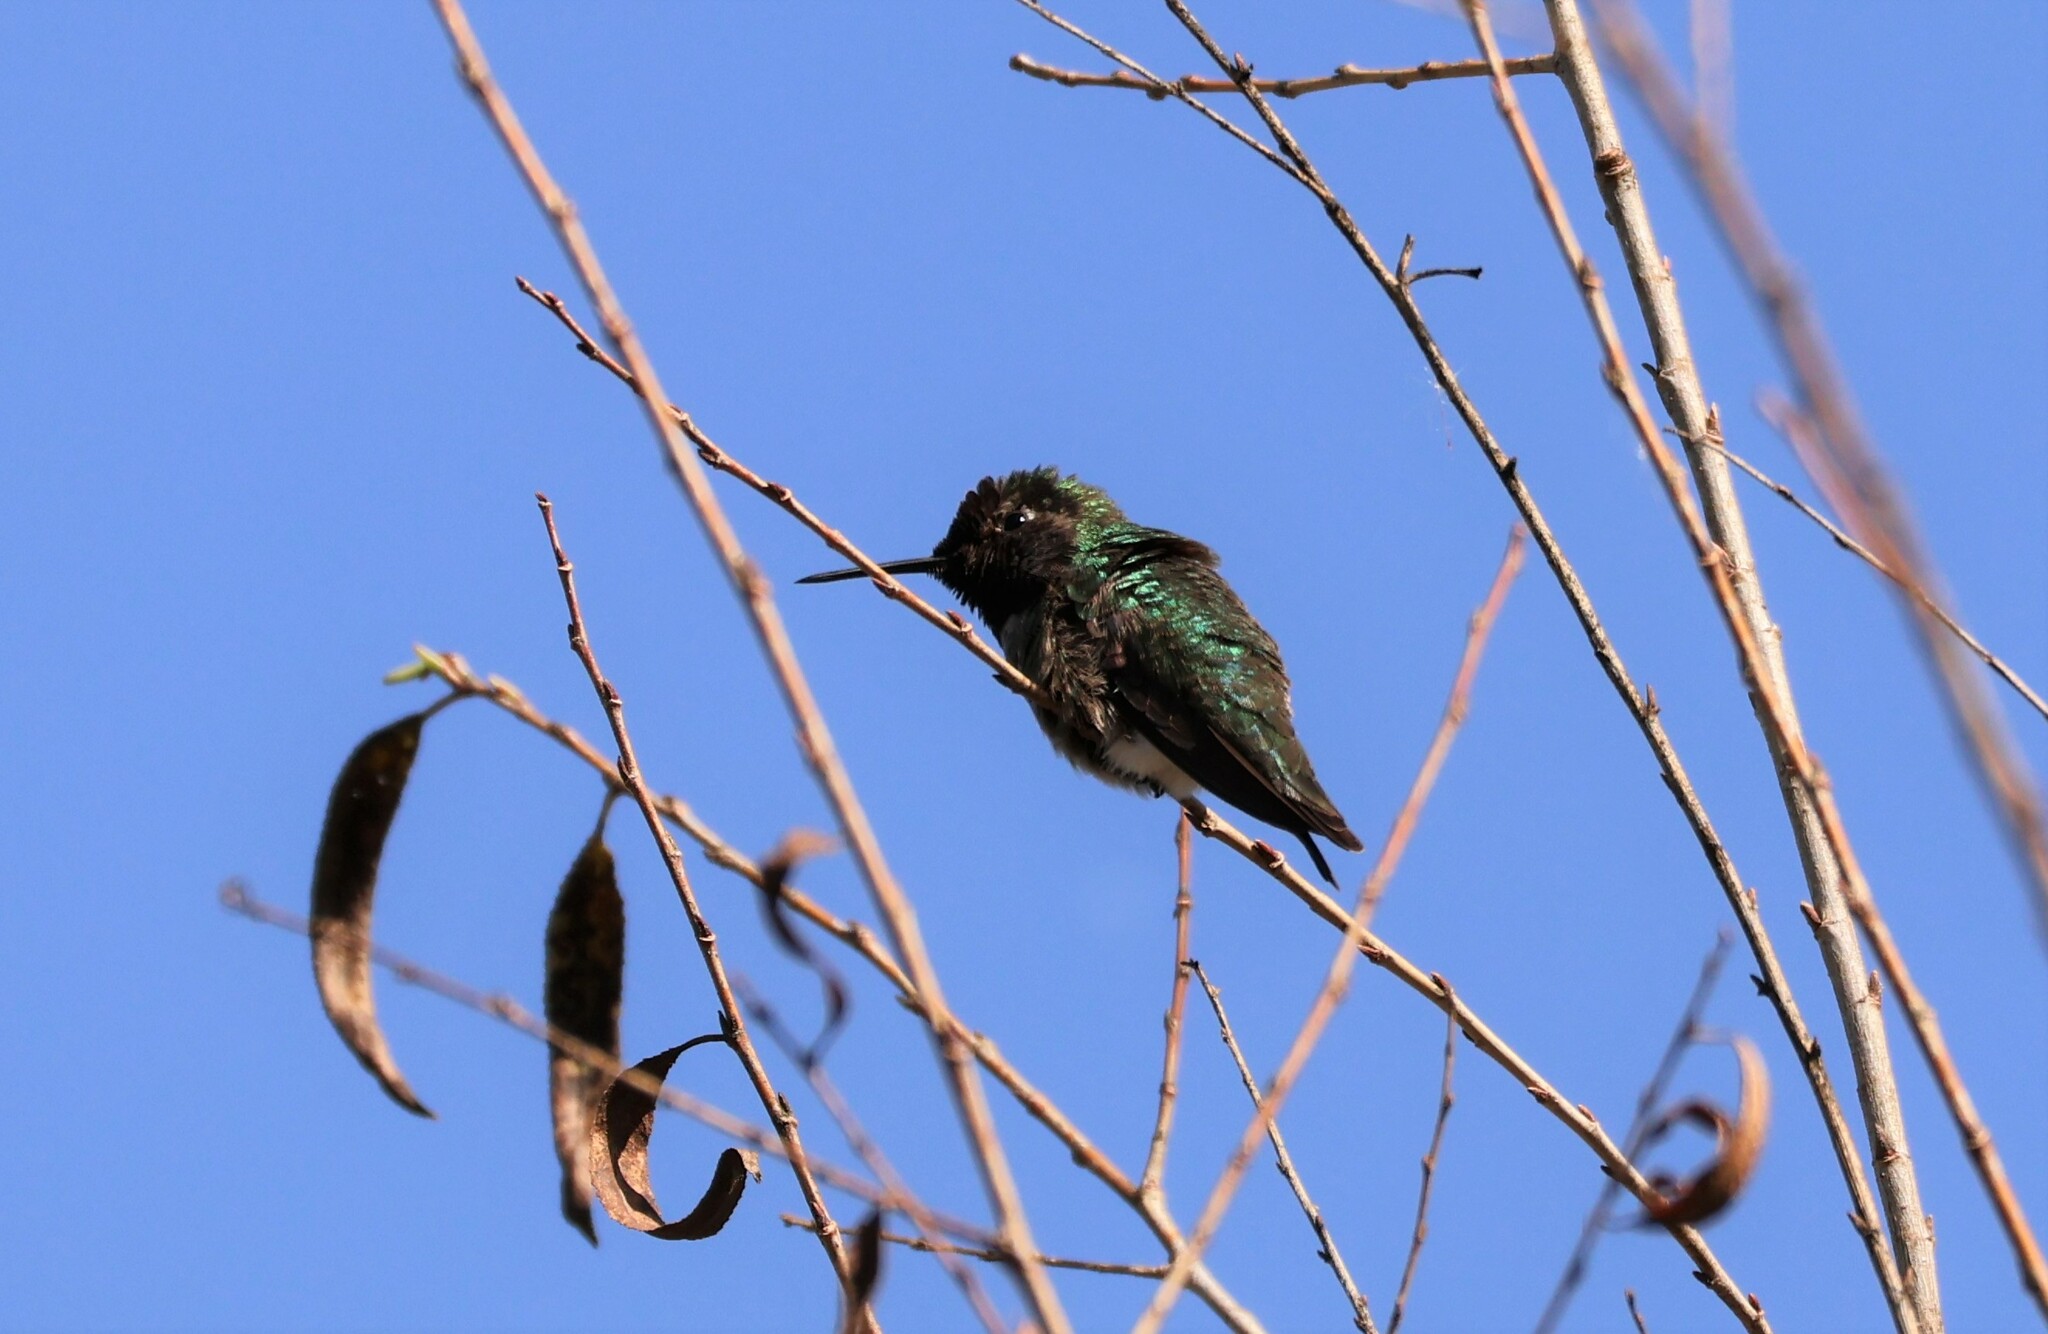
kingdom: Animalia
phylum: Chordata
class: Aves
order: Apodiformes
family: Trochilidae
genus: Calypte
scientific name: Calypte anna
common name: Anna's hummingbird
